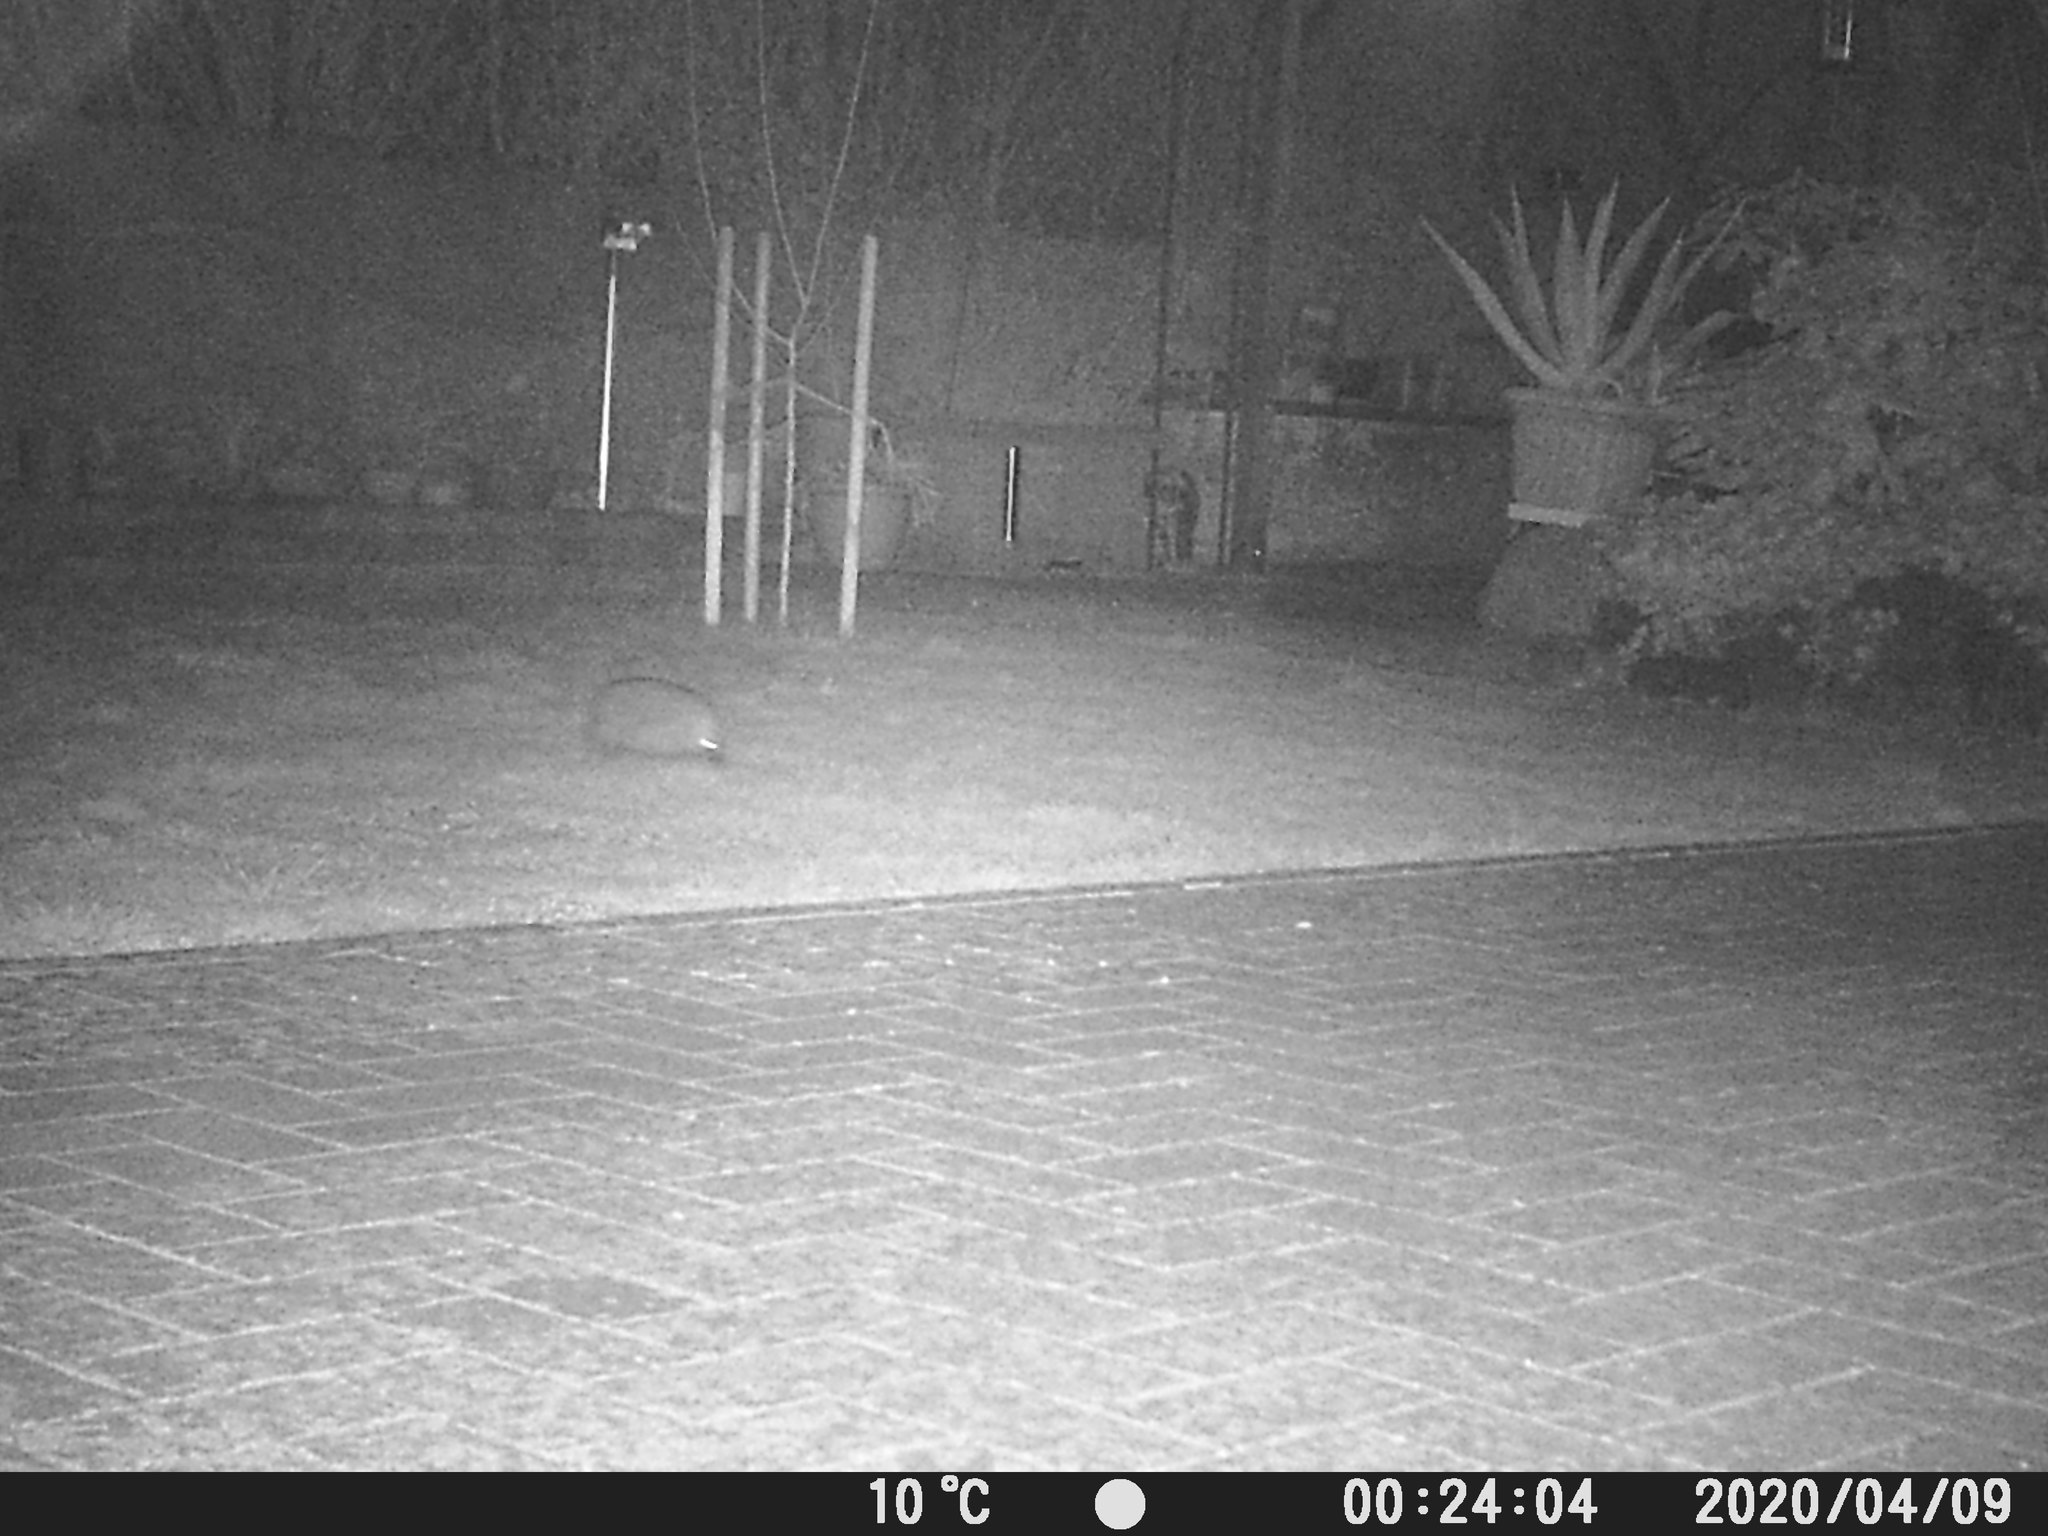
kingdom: Animalia
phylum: Chordata
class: Mammalia
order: Erinaceomorpha
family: Erinaceidae
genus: Erinaceus
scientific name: Erinaceus europaeus
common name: West european hedgehog
